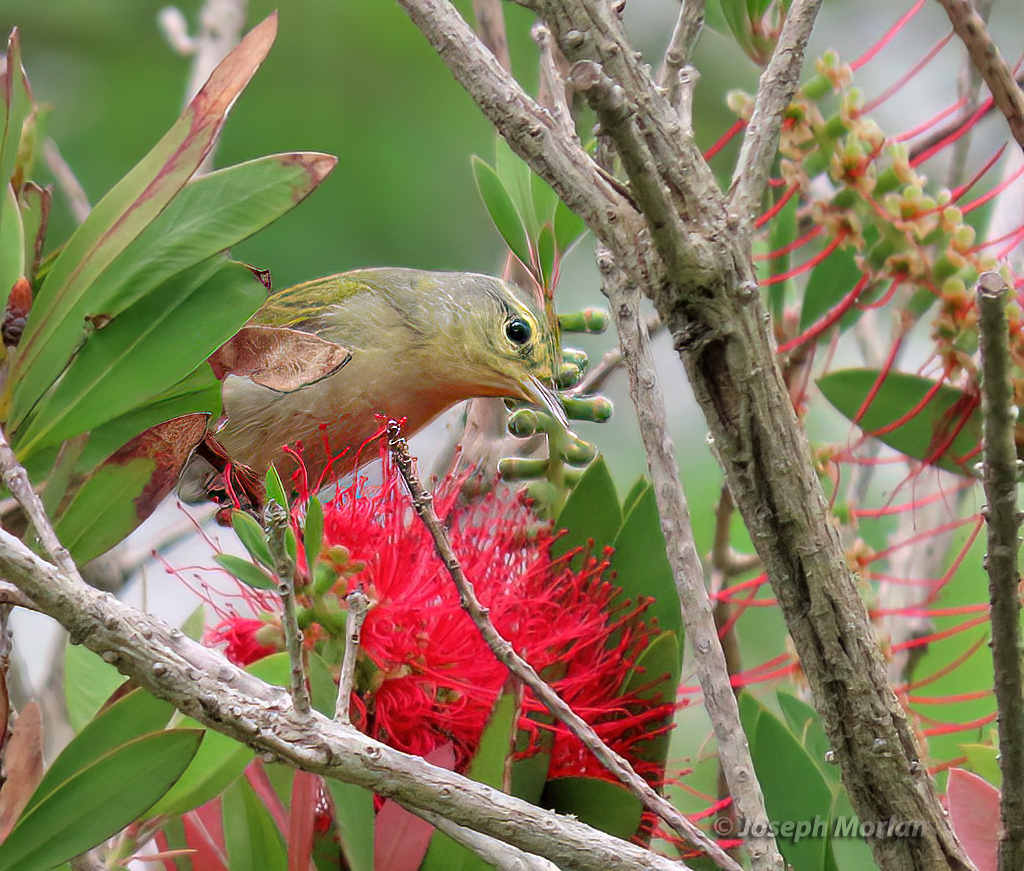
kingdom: Animalia
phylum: Chordata
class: Aves
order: Passeriformes
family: Parulidae
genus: Leiothlypis
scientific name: Leiothlypis peregrina
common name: Tennessee warbler
